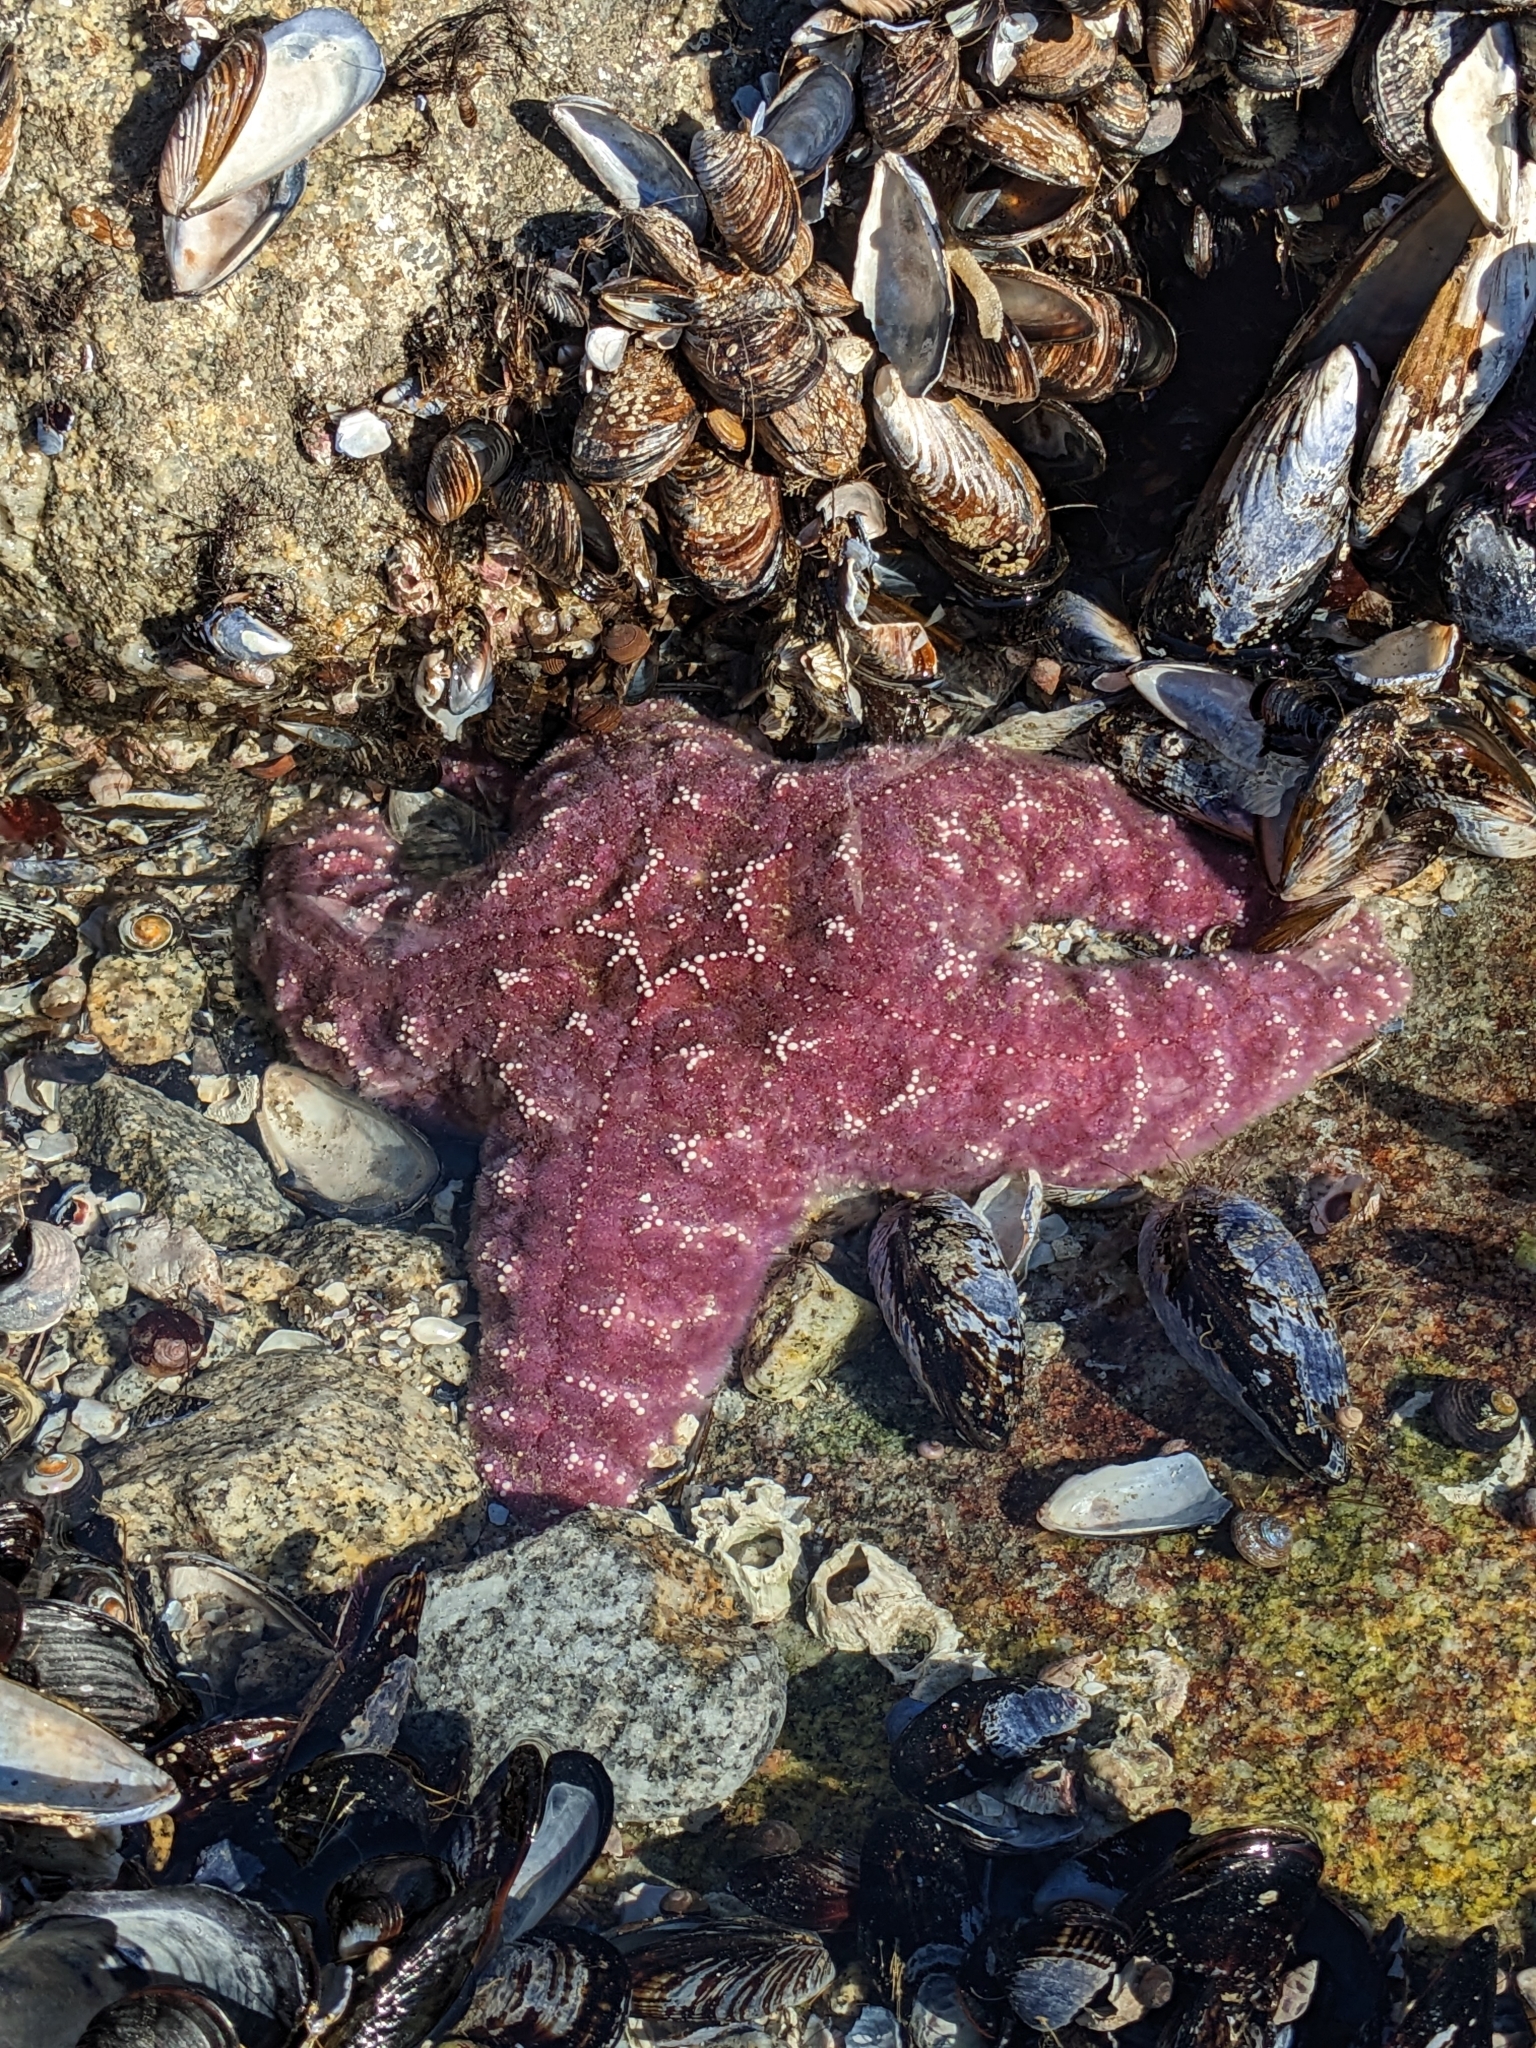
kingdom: Animalia
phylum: Echinodermata
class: Asteroidea
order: Forcipulatida
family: Asteriidae
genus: Pisaster
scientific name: Pisaster ochraceus
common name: Ochre stars
